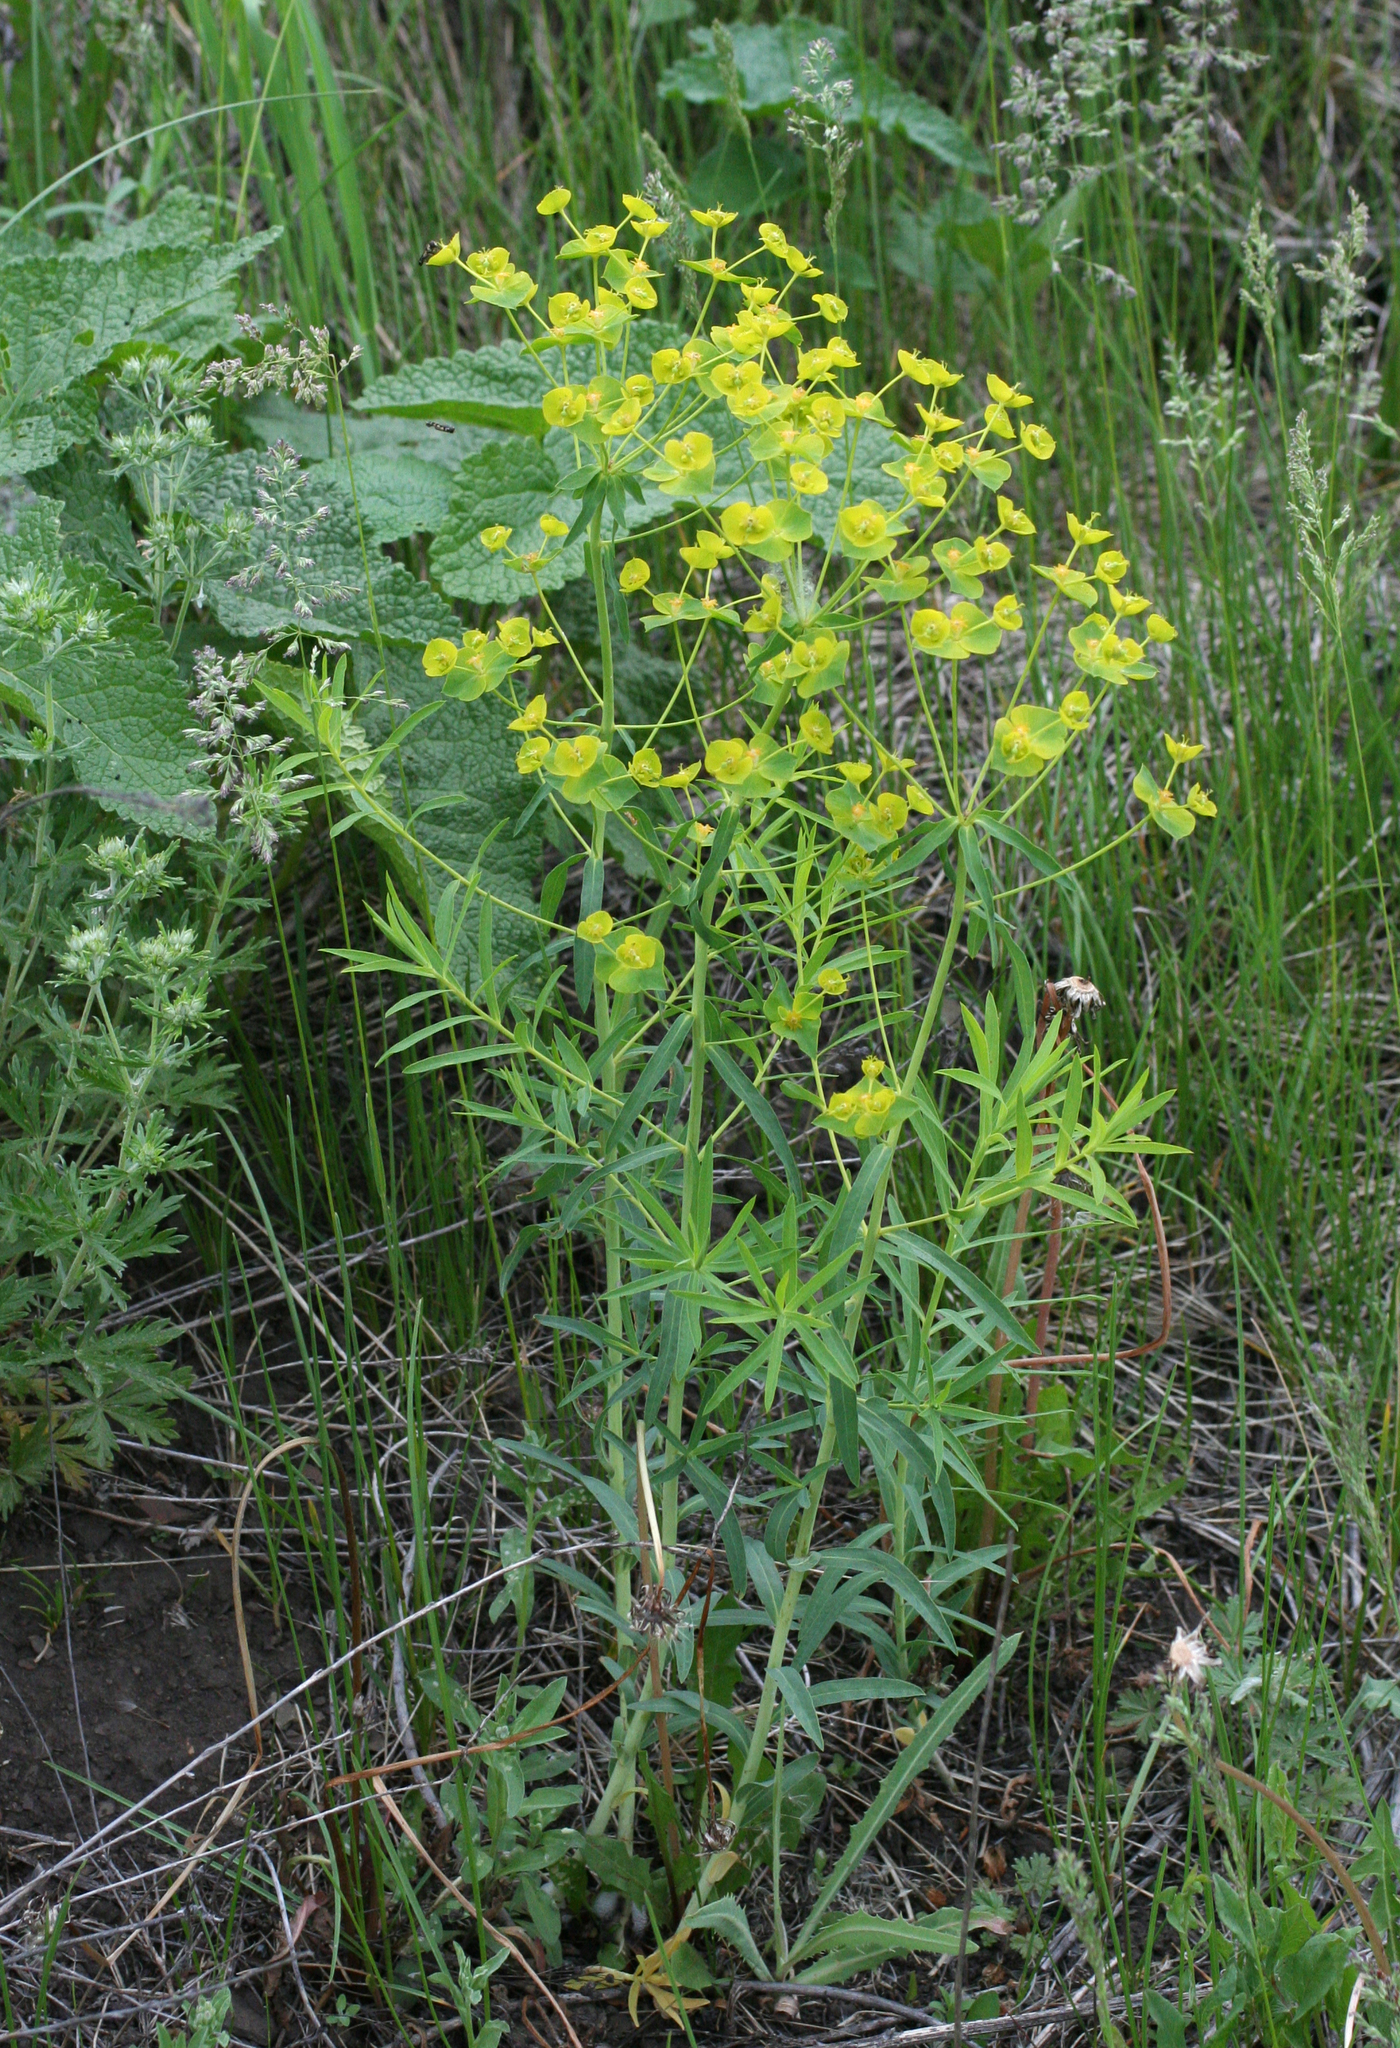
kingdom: Plantae
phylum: Tracheophyta
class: Magnoliopsida
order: Malpighiales
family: Euphorbiaceae
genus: Euphorbia
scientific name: Euphorbia virgata
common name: Leafy spurge
